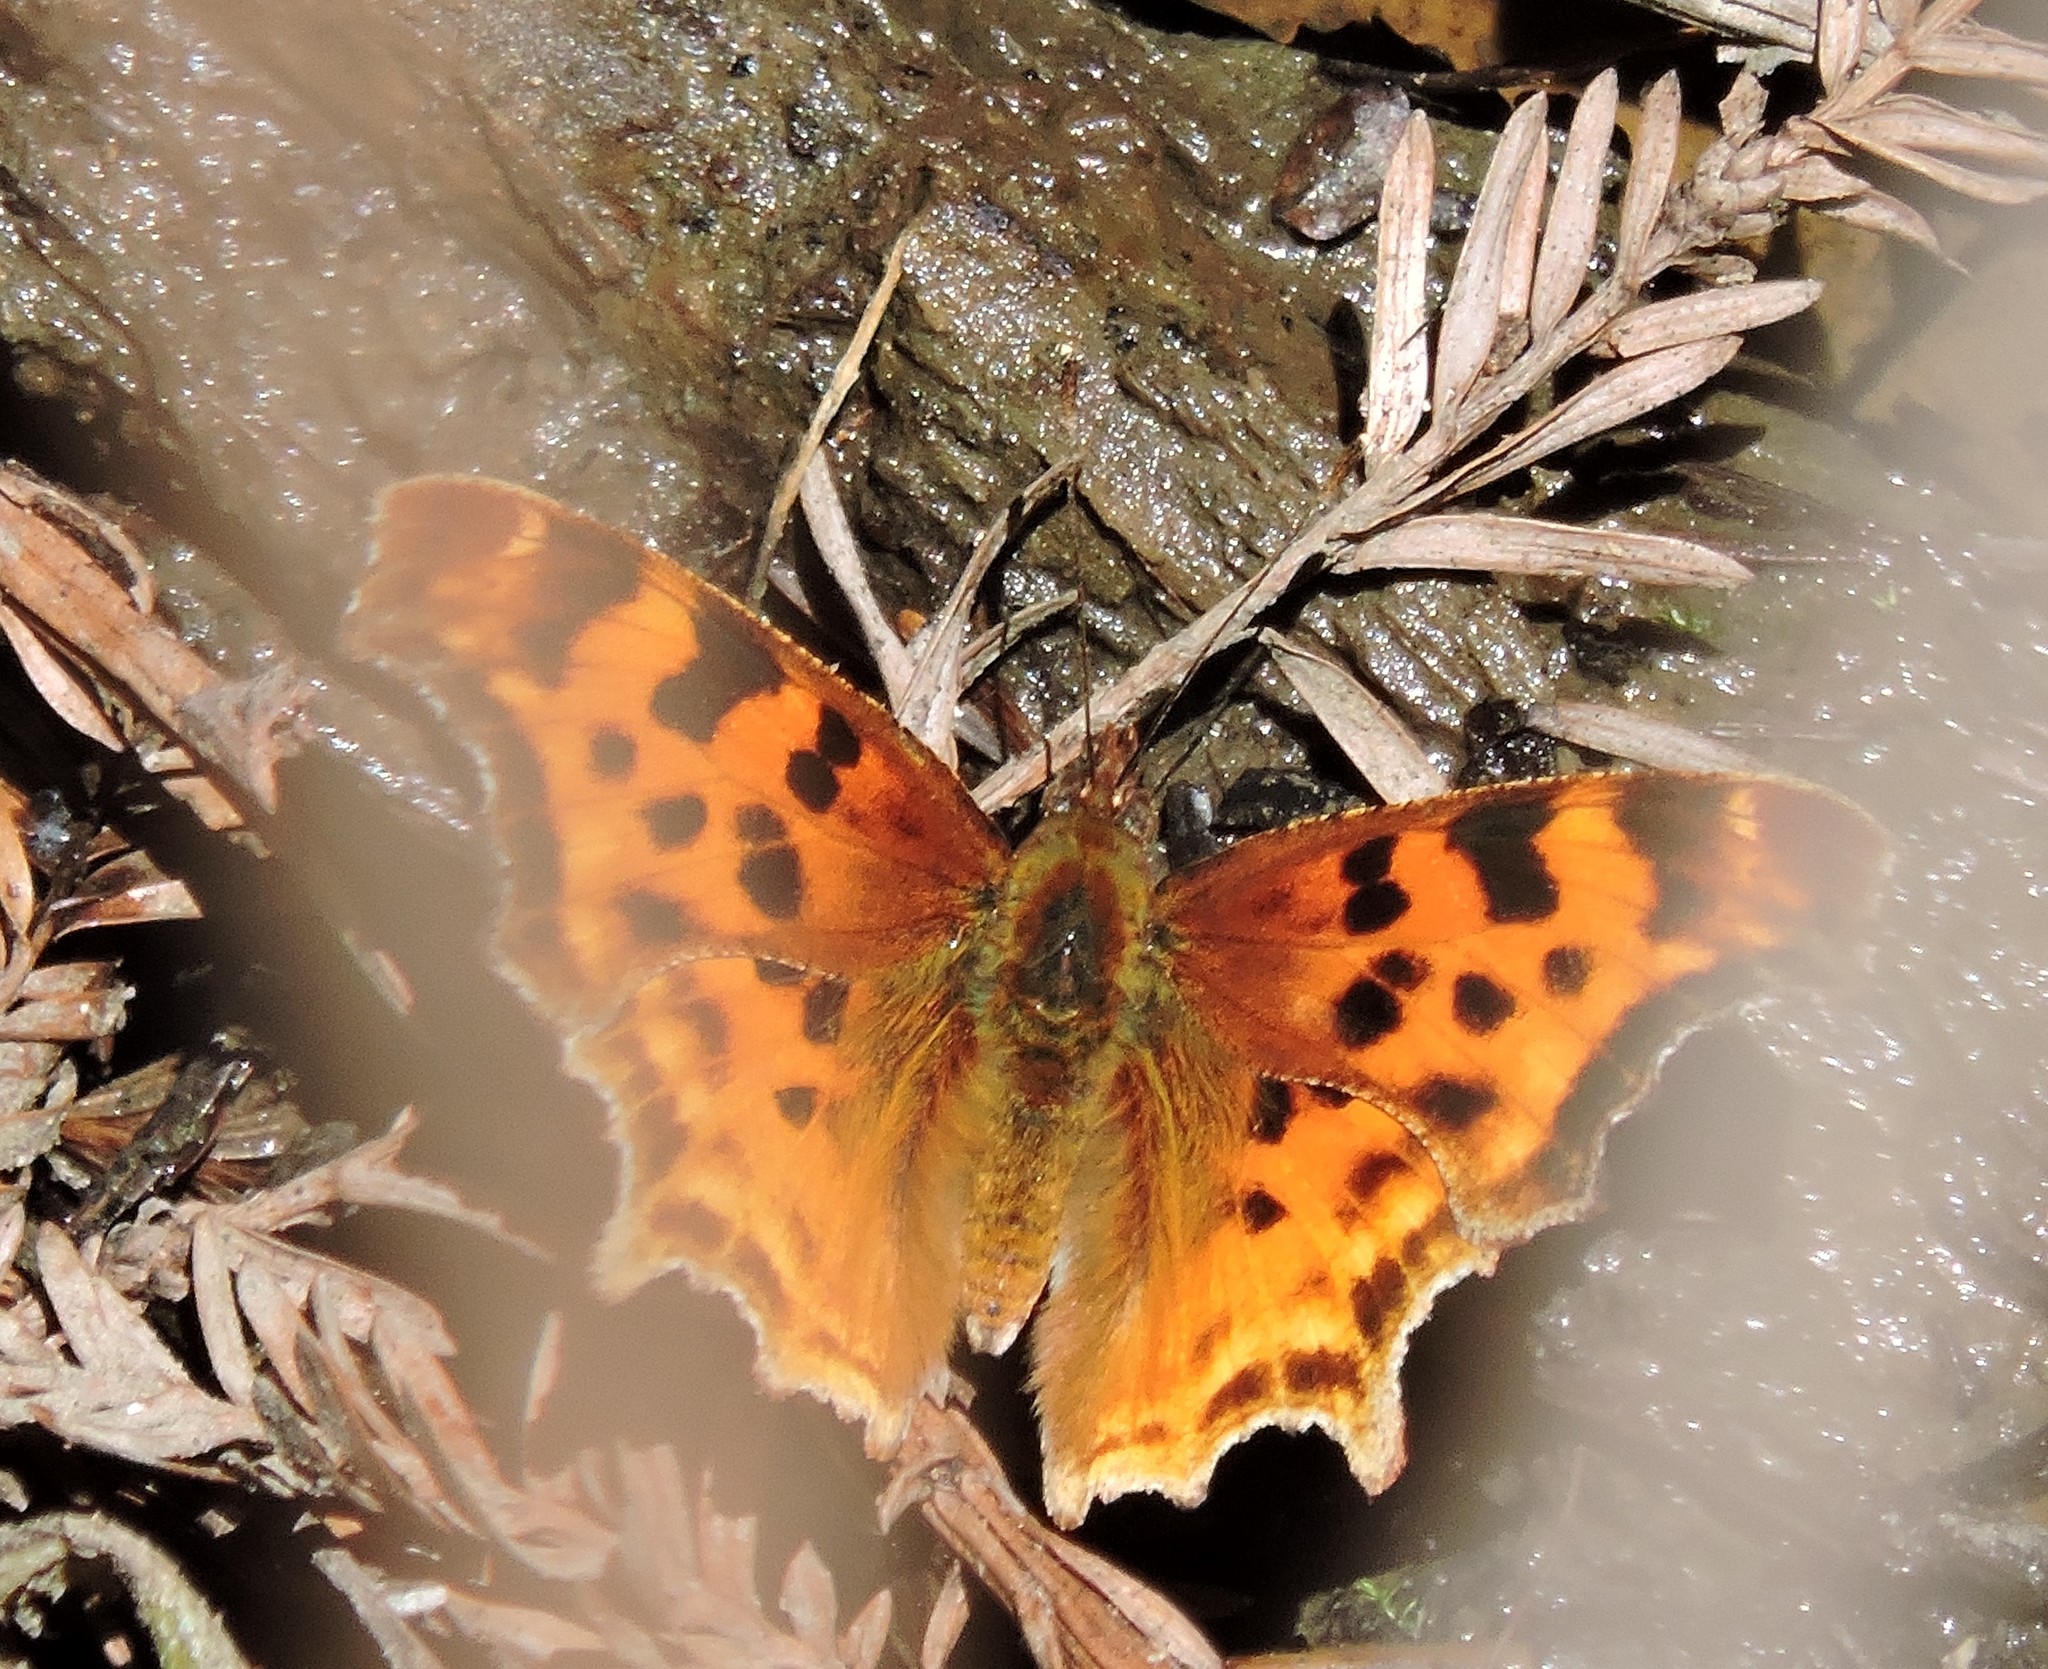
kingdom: Animalia
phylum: Arthropoda
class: Insecta
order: Lepidoptera
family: Nymphalidae
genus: Polygonia
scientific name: Polygonia satyrus
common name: Satyr angle wing
